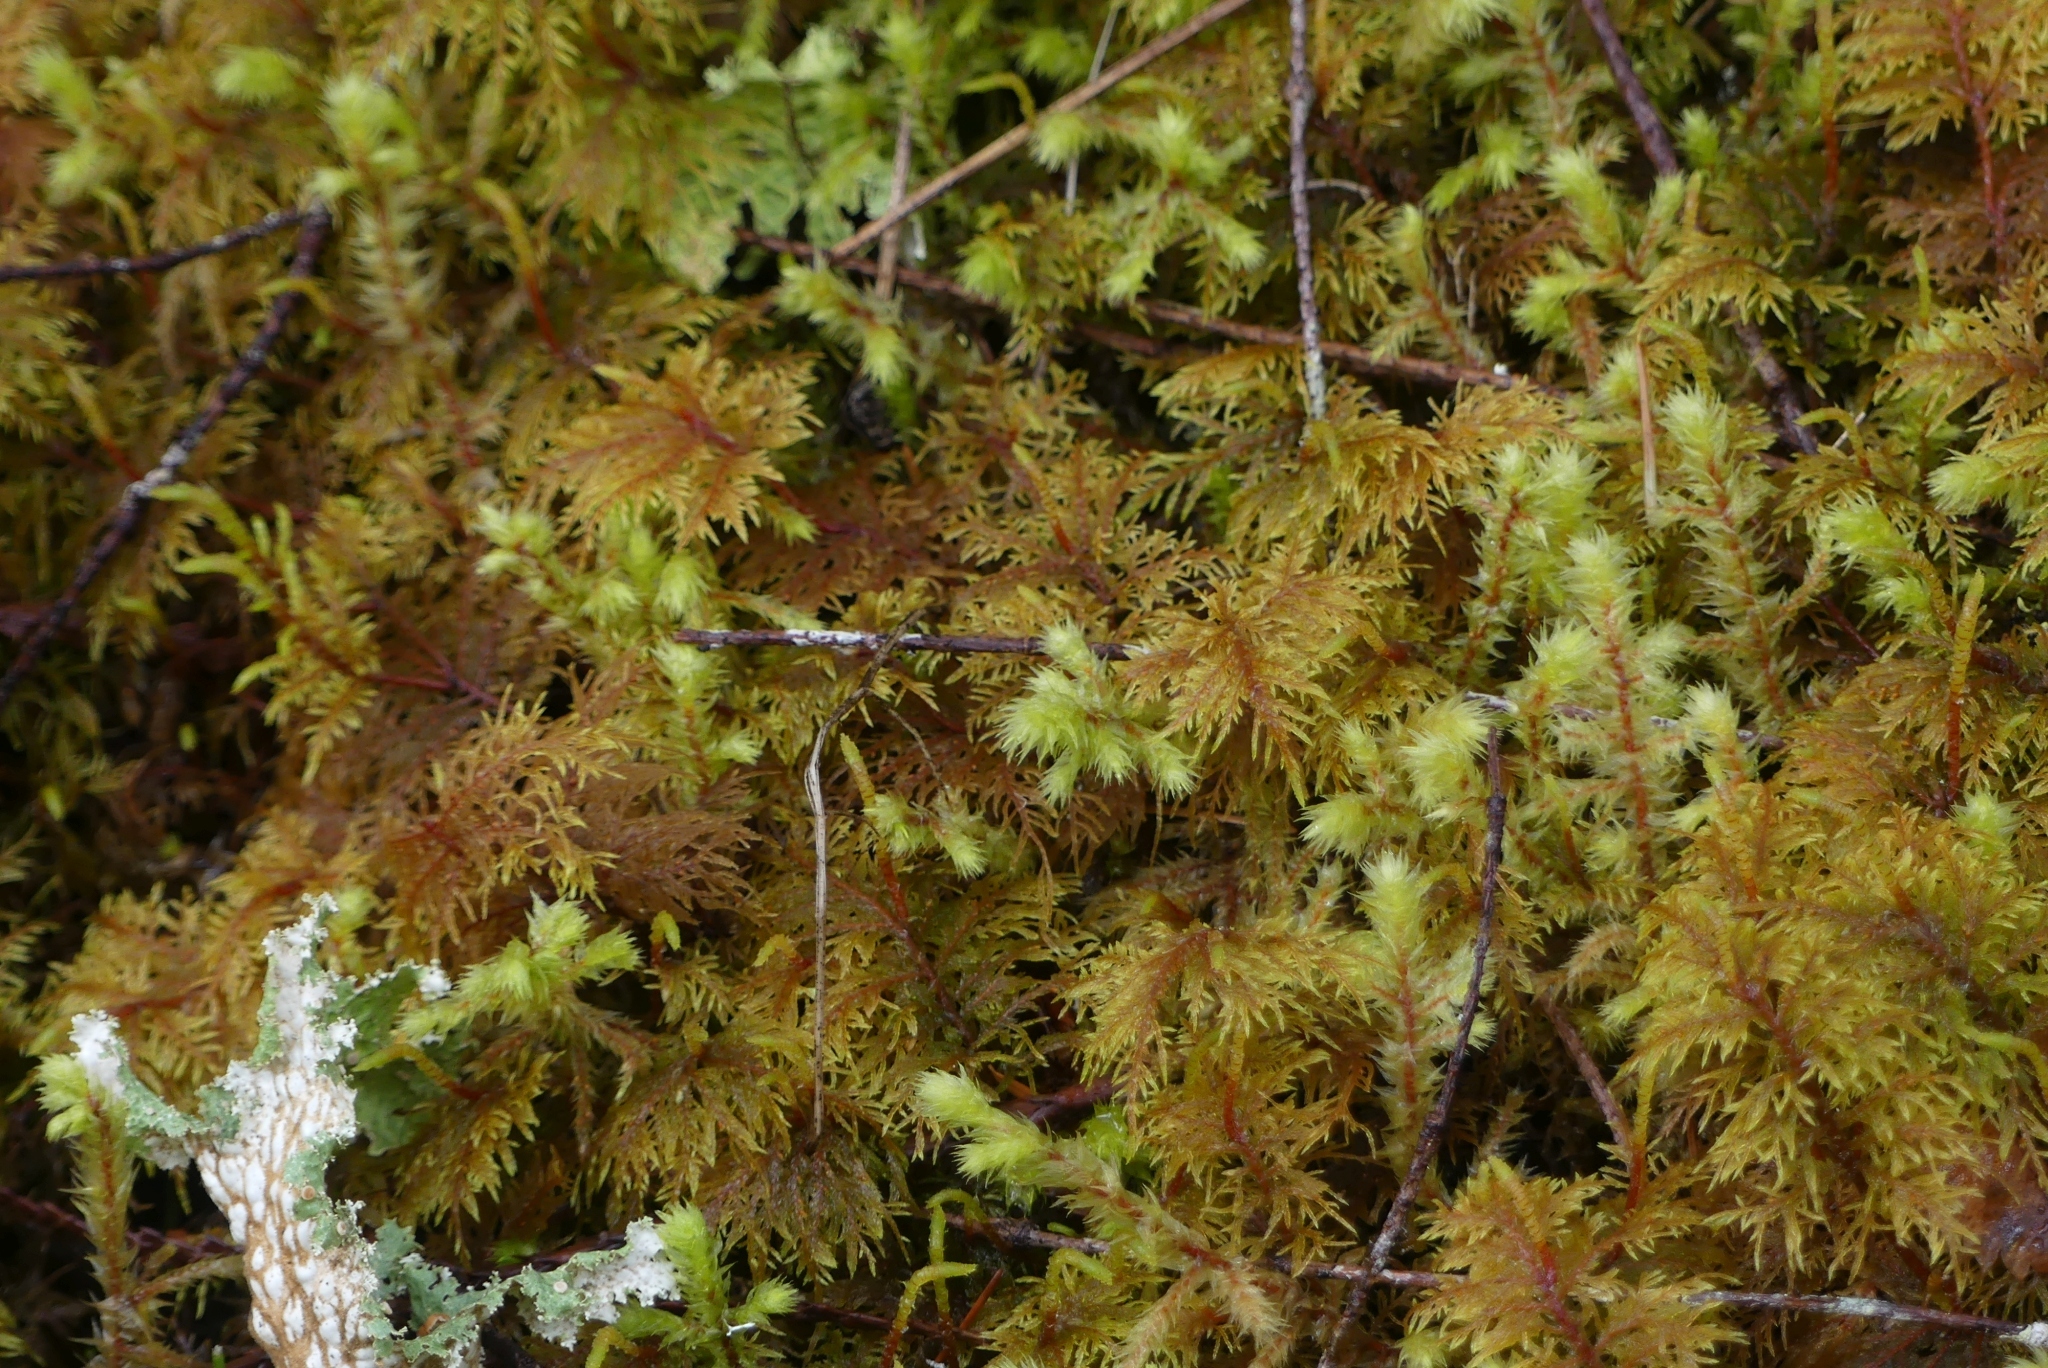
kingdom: Plantae
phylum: Bryophyta
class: Bryopsida
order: Hypnales
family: Hylocomiaceae
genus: Hylocomium
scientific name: Hylocomium splendens
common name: Stairstep moss
